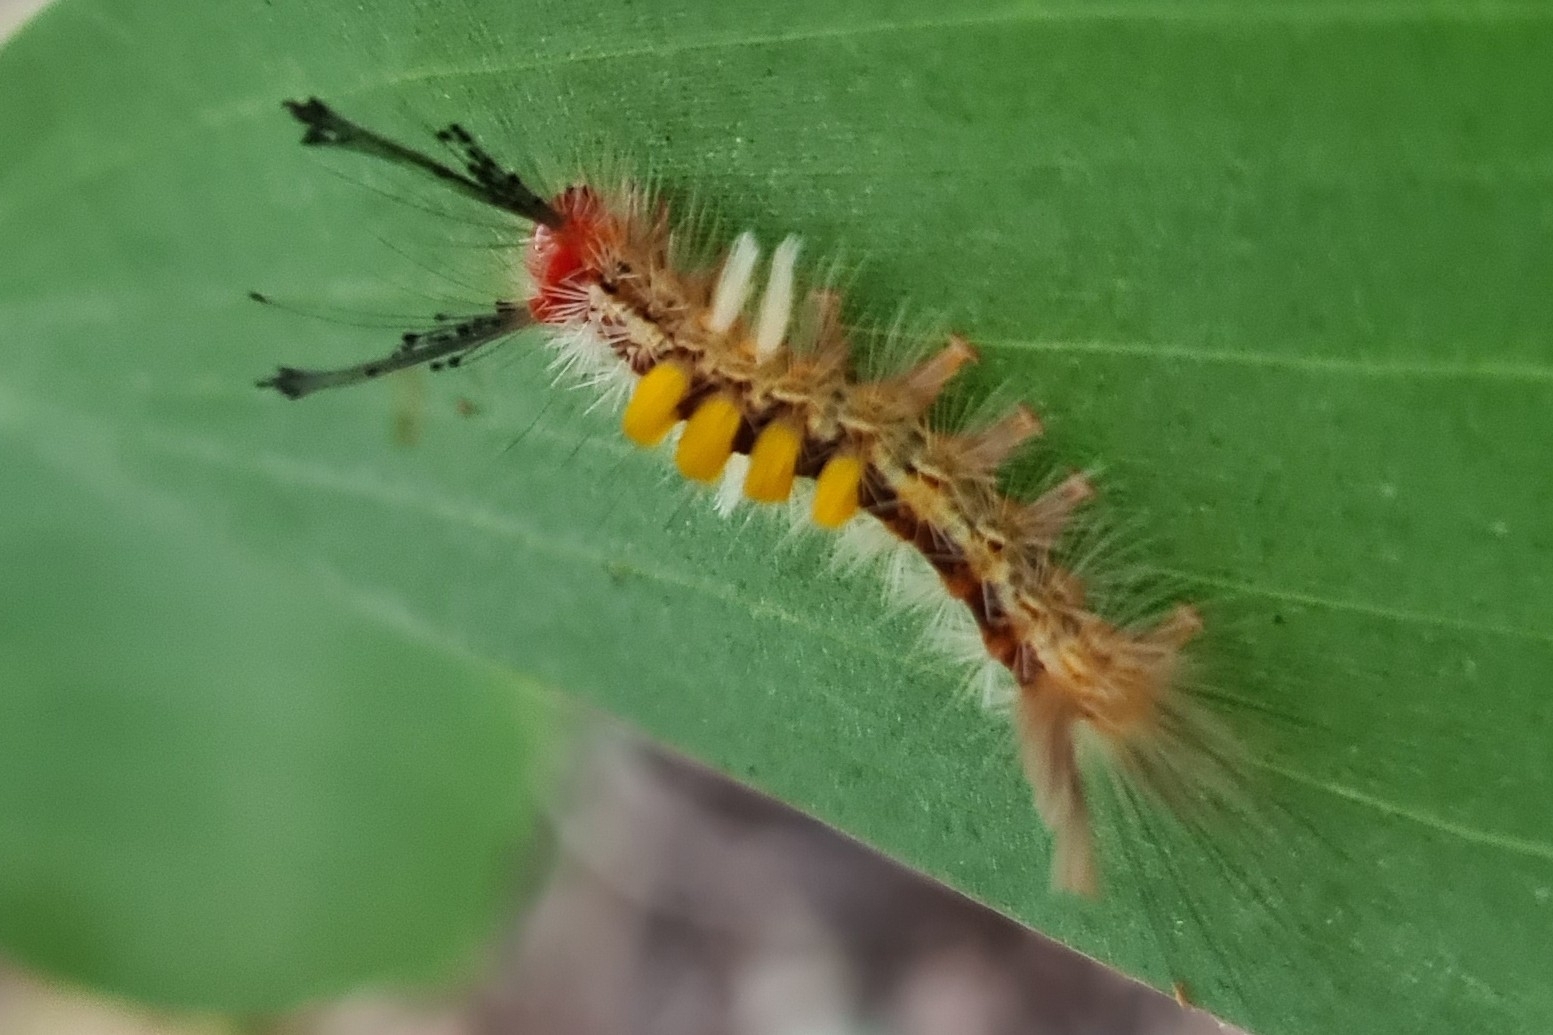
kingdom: Animalia
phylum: Arthropoda
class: Insecta
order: Lepidoptera
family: Erebidae
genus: Orgyia
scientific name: Orgyia australis
